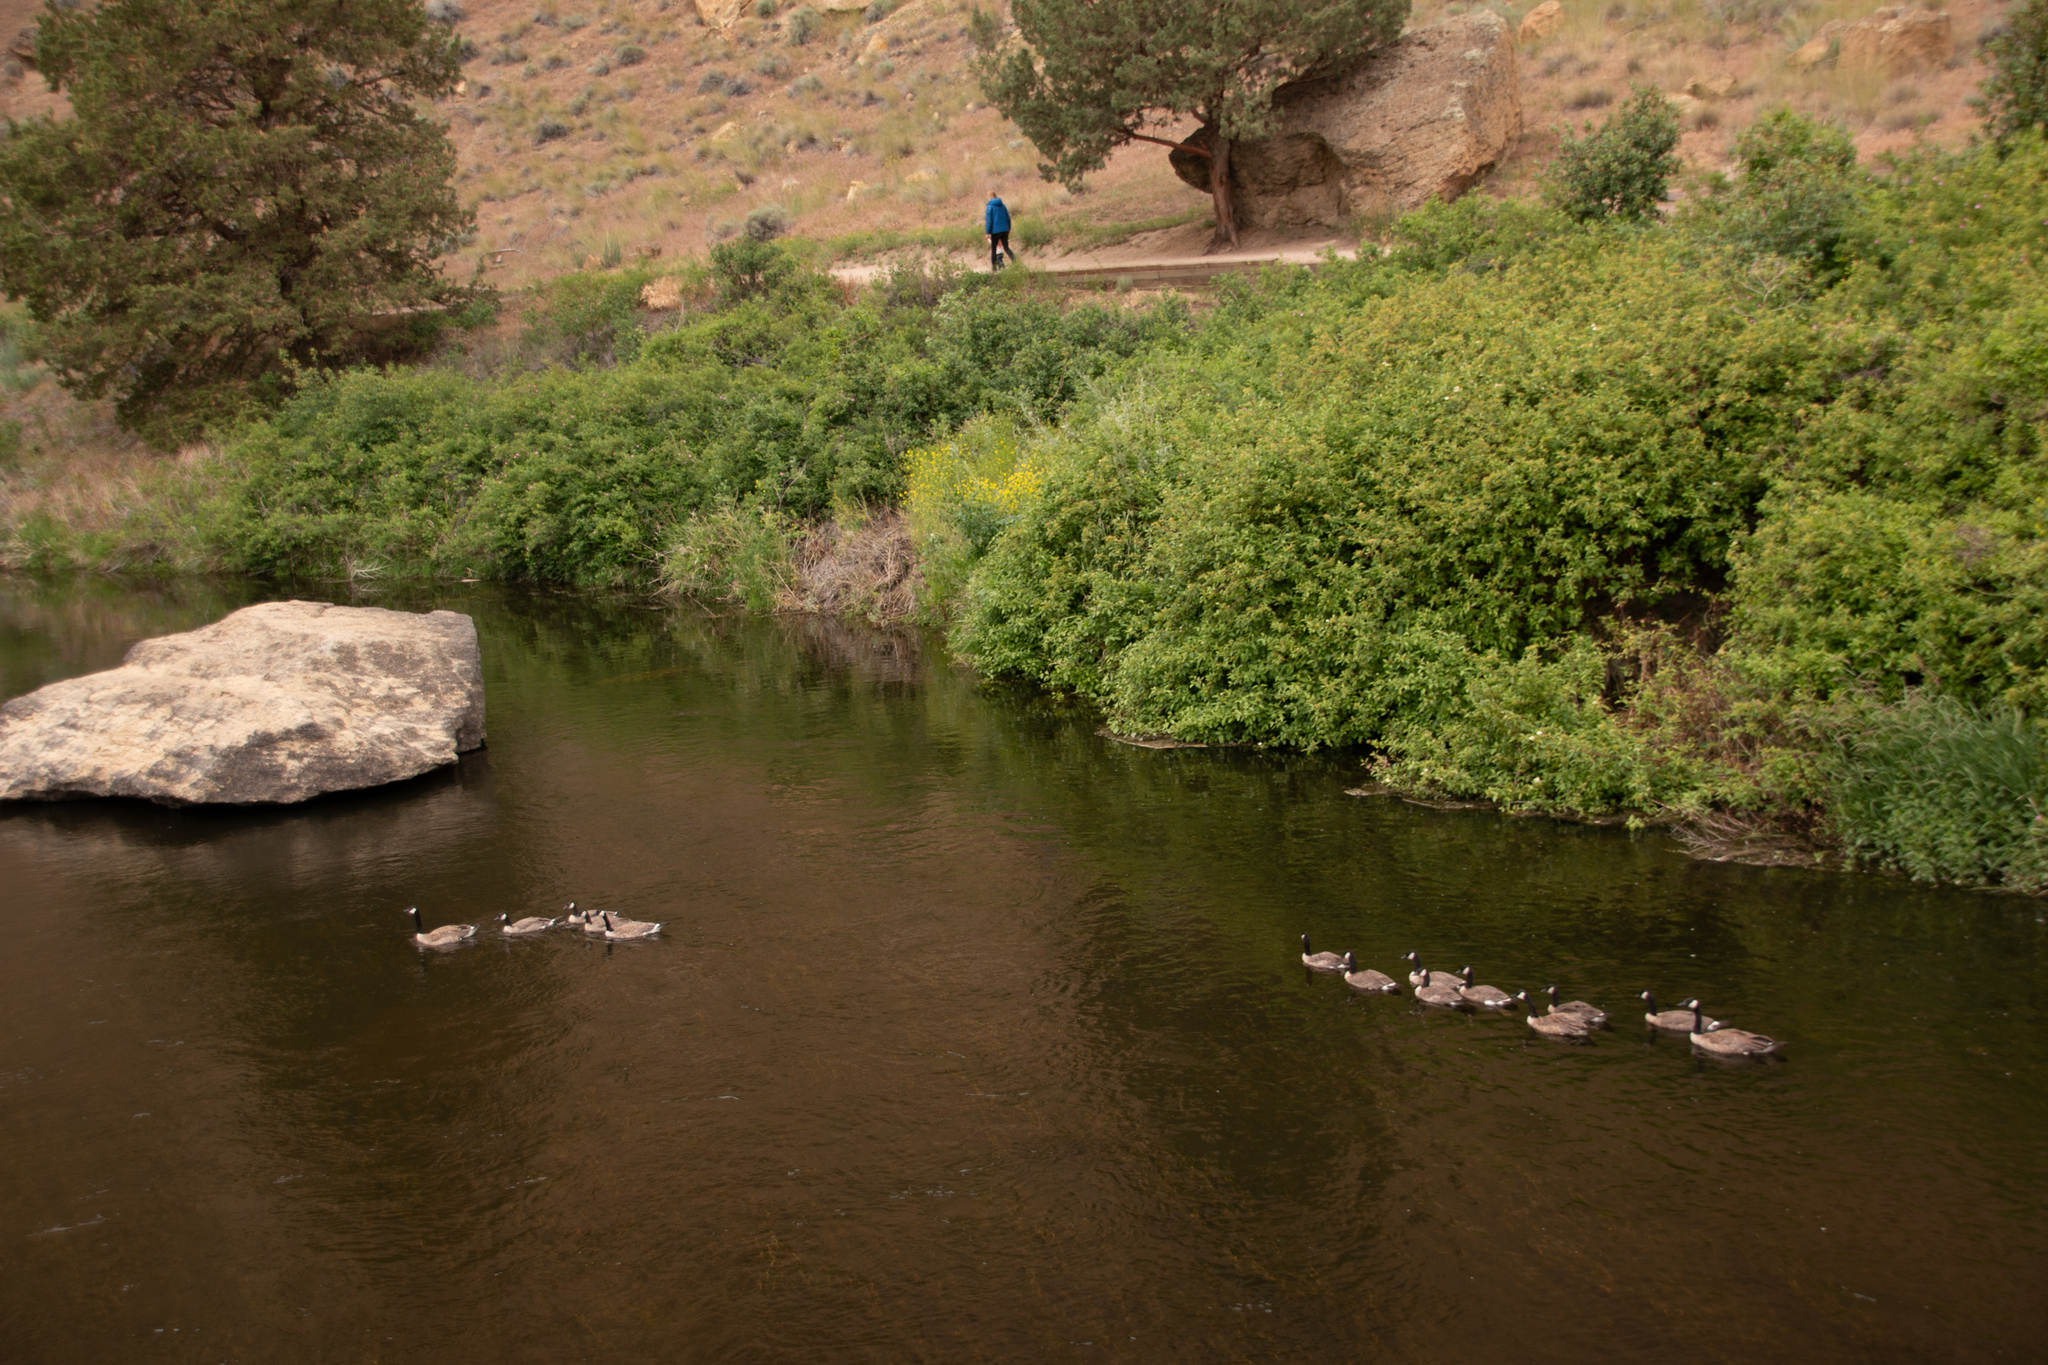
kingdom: Animalia
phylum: Chordata
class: Aves
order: Anseriformes
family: Anatidae
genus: Branta
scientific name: Branta canadensis
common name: Canada goose
